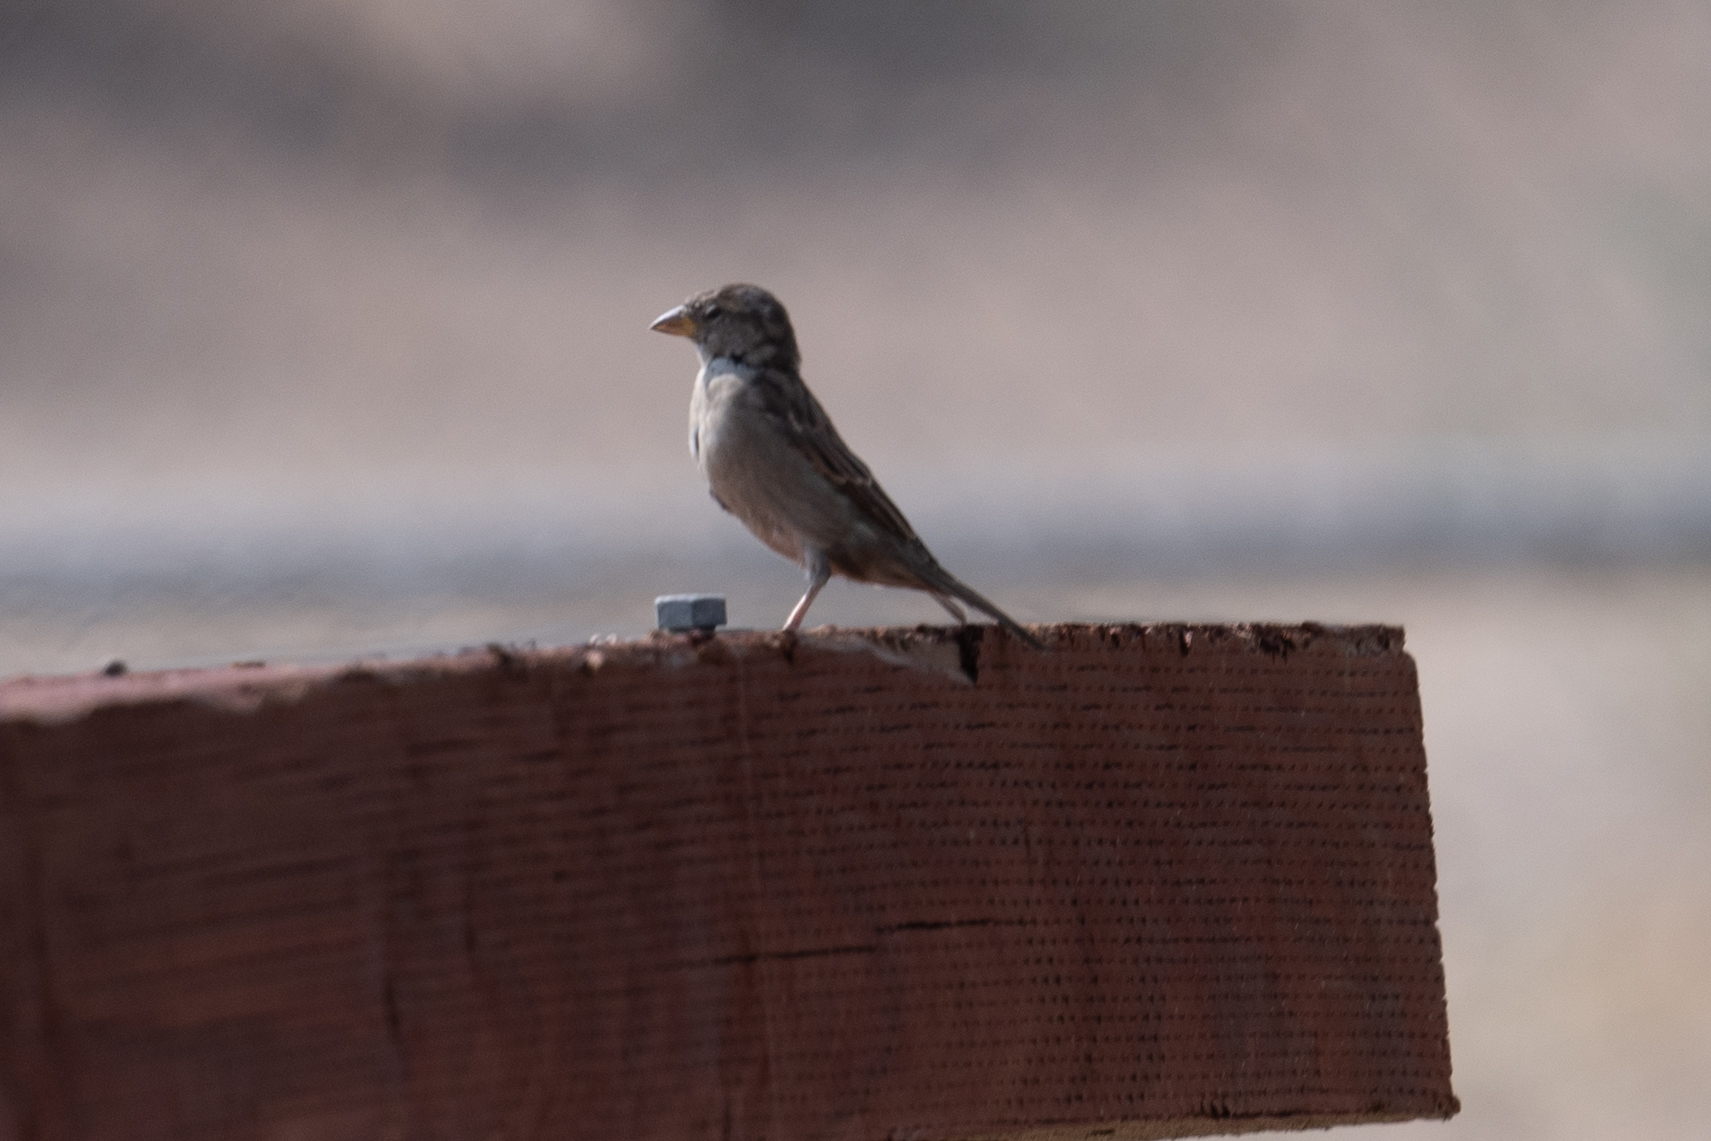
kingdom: Animalia
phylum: Chordata
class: Aves
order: Passeriformes
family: Passeridae
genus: Passer
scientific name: Passer domesticus
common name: House sparrow
